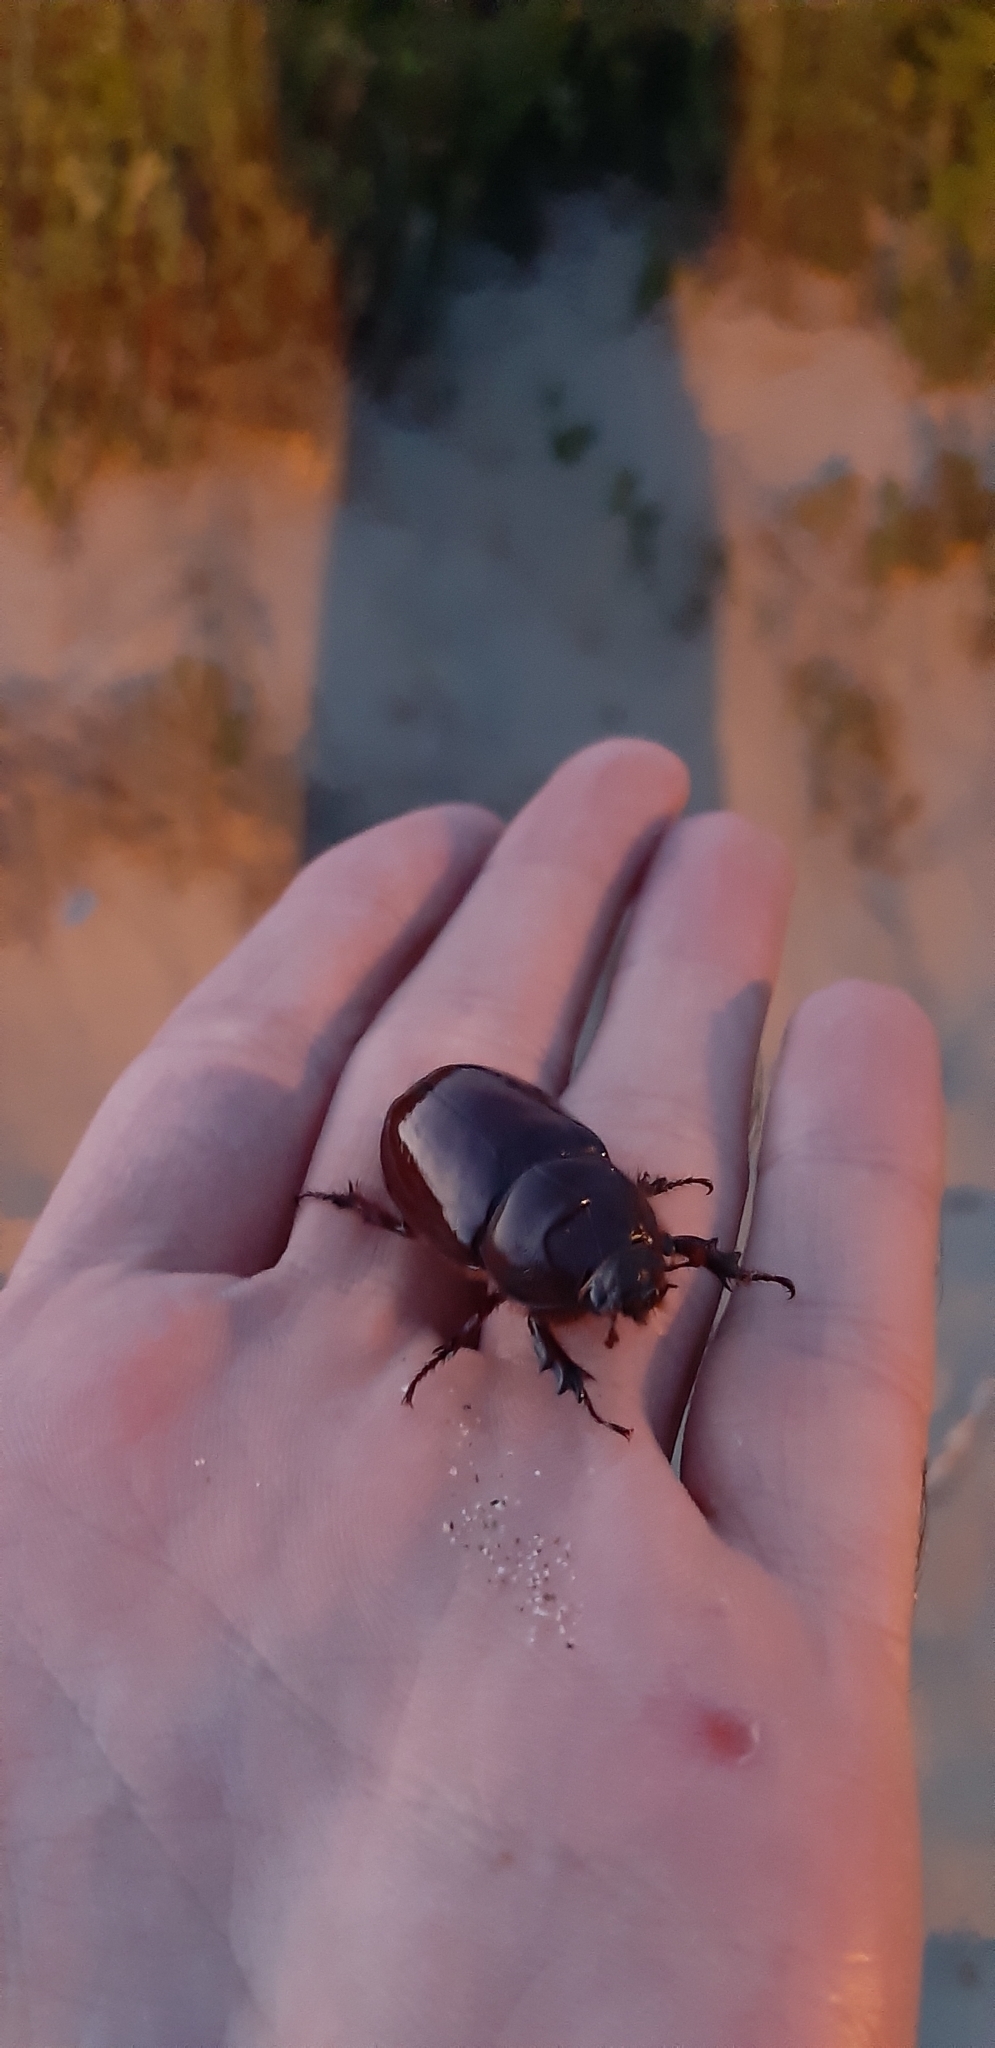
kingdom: Animalia
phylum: Arthropoda
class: Insecta
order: Coleoptera
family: Scarabaeidae
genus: Oryctes
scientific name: Oryctes nasicornis
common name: European rhinoceros beetle
